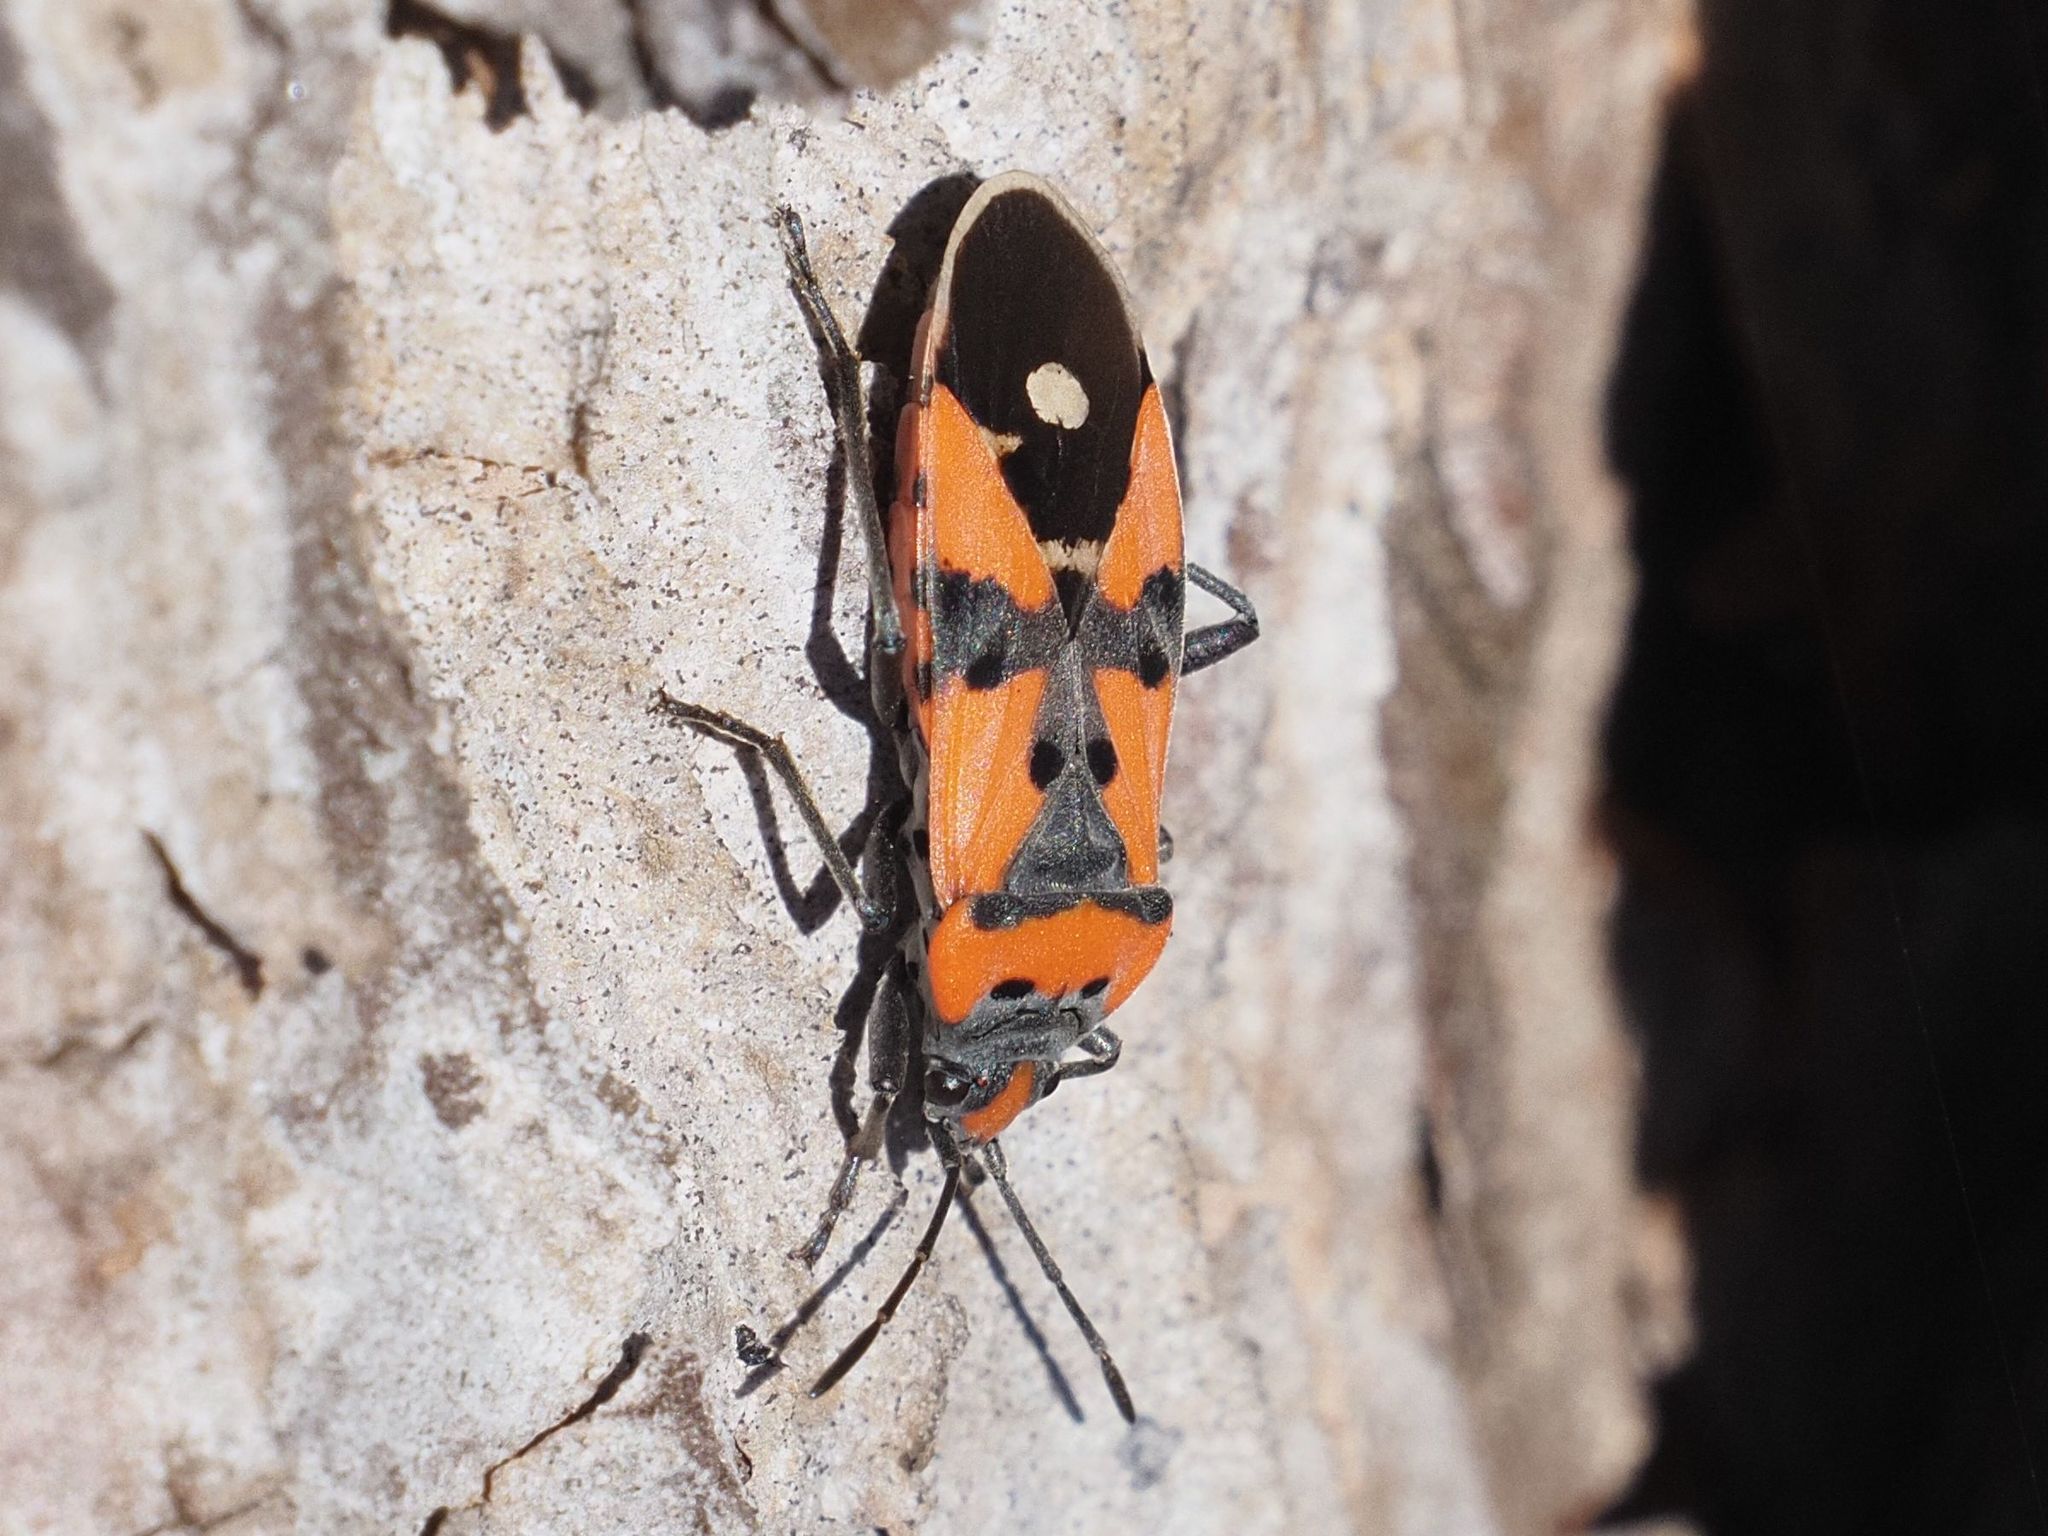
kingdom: Animalia
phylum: Arthropoda
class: Insecta
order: Hemiptera
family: Lygaeidae
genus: Lygaeus
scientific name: Lygaeus equestris
